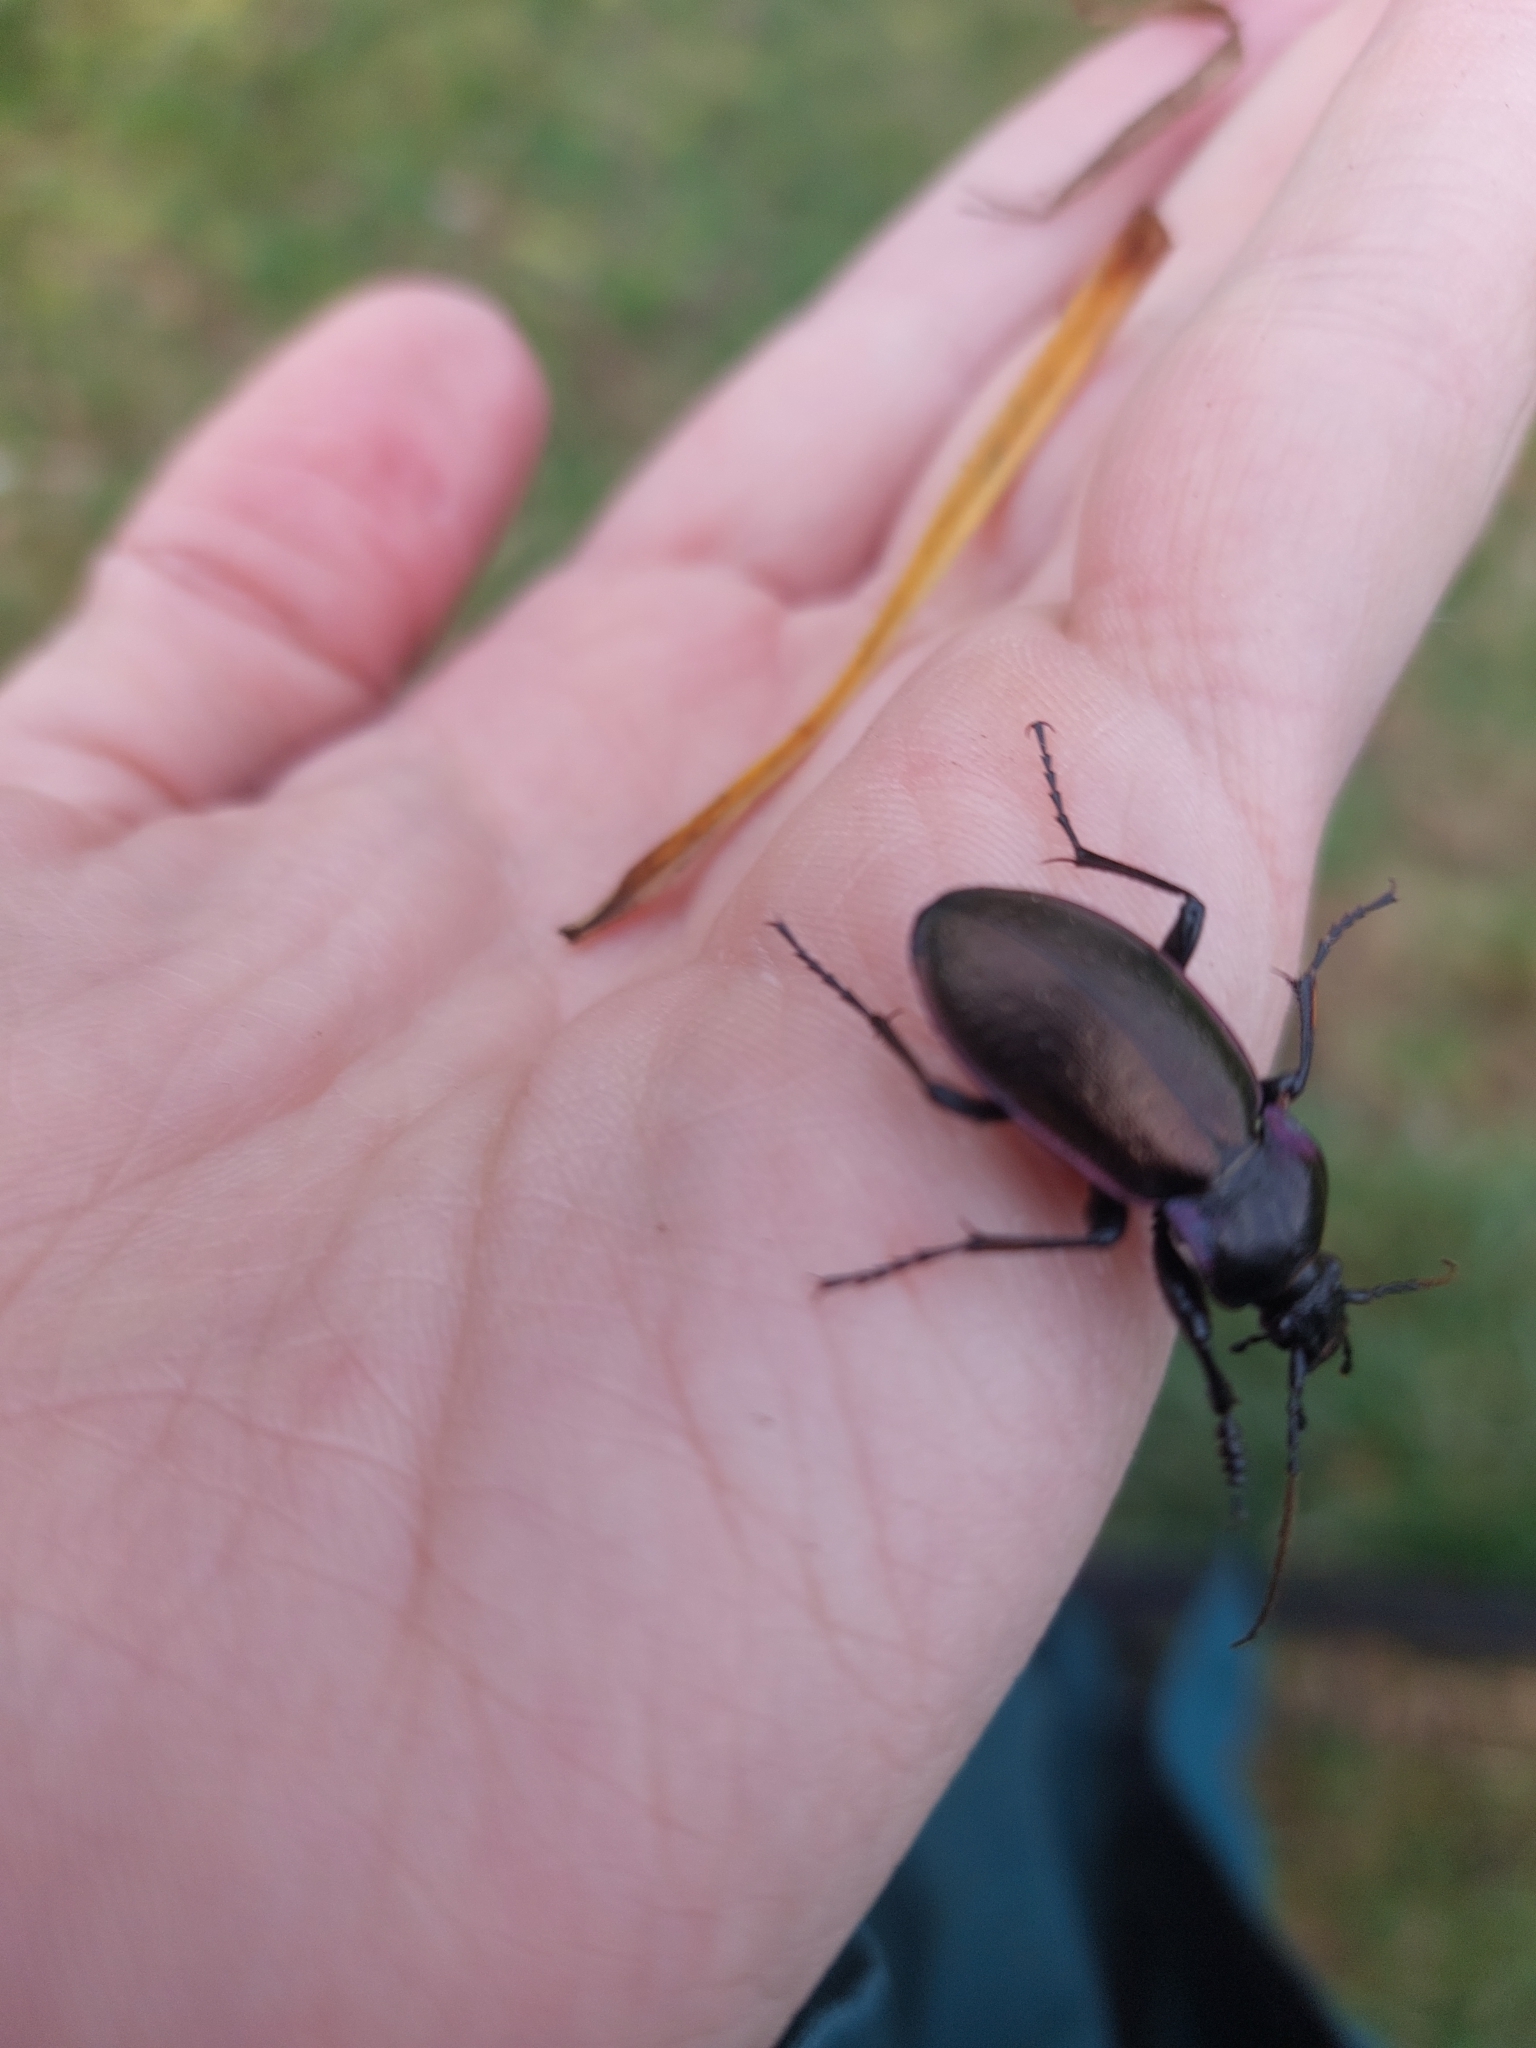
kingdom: Animalia
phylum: Arthropoda
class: Insecta
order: Coleoptera
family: Carabidae
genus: Carabus
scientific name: Carabus nemoralis
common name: European ground beetle
